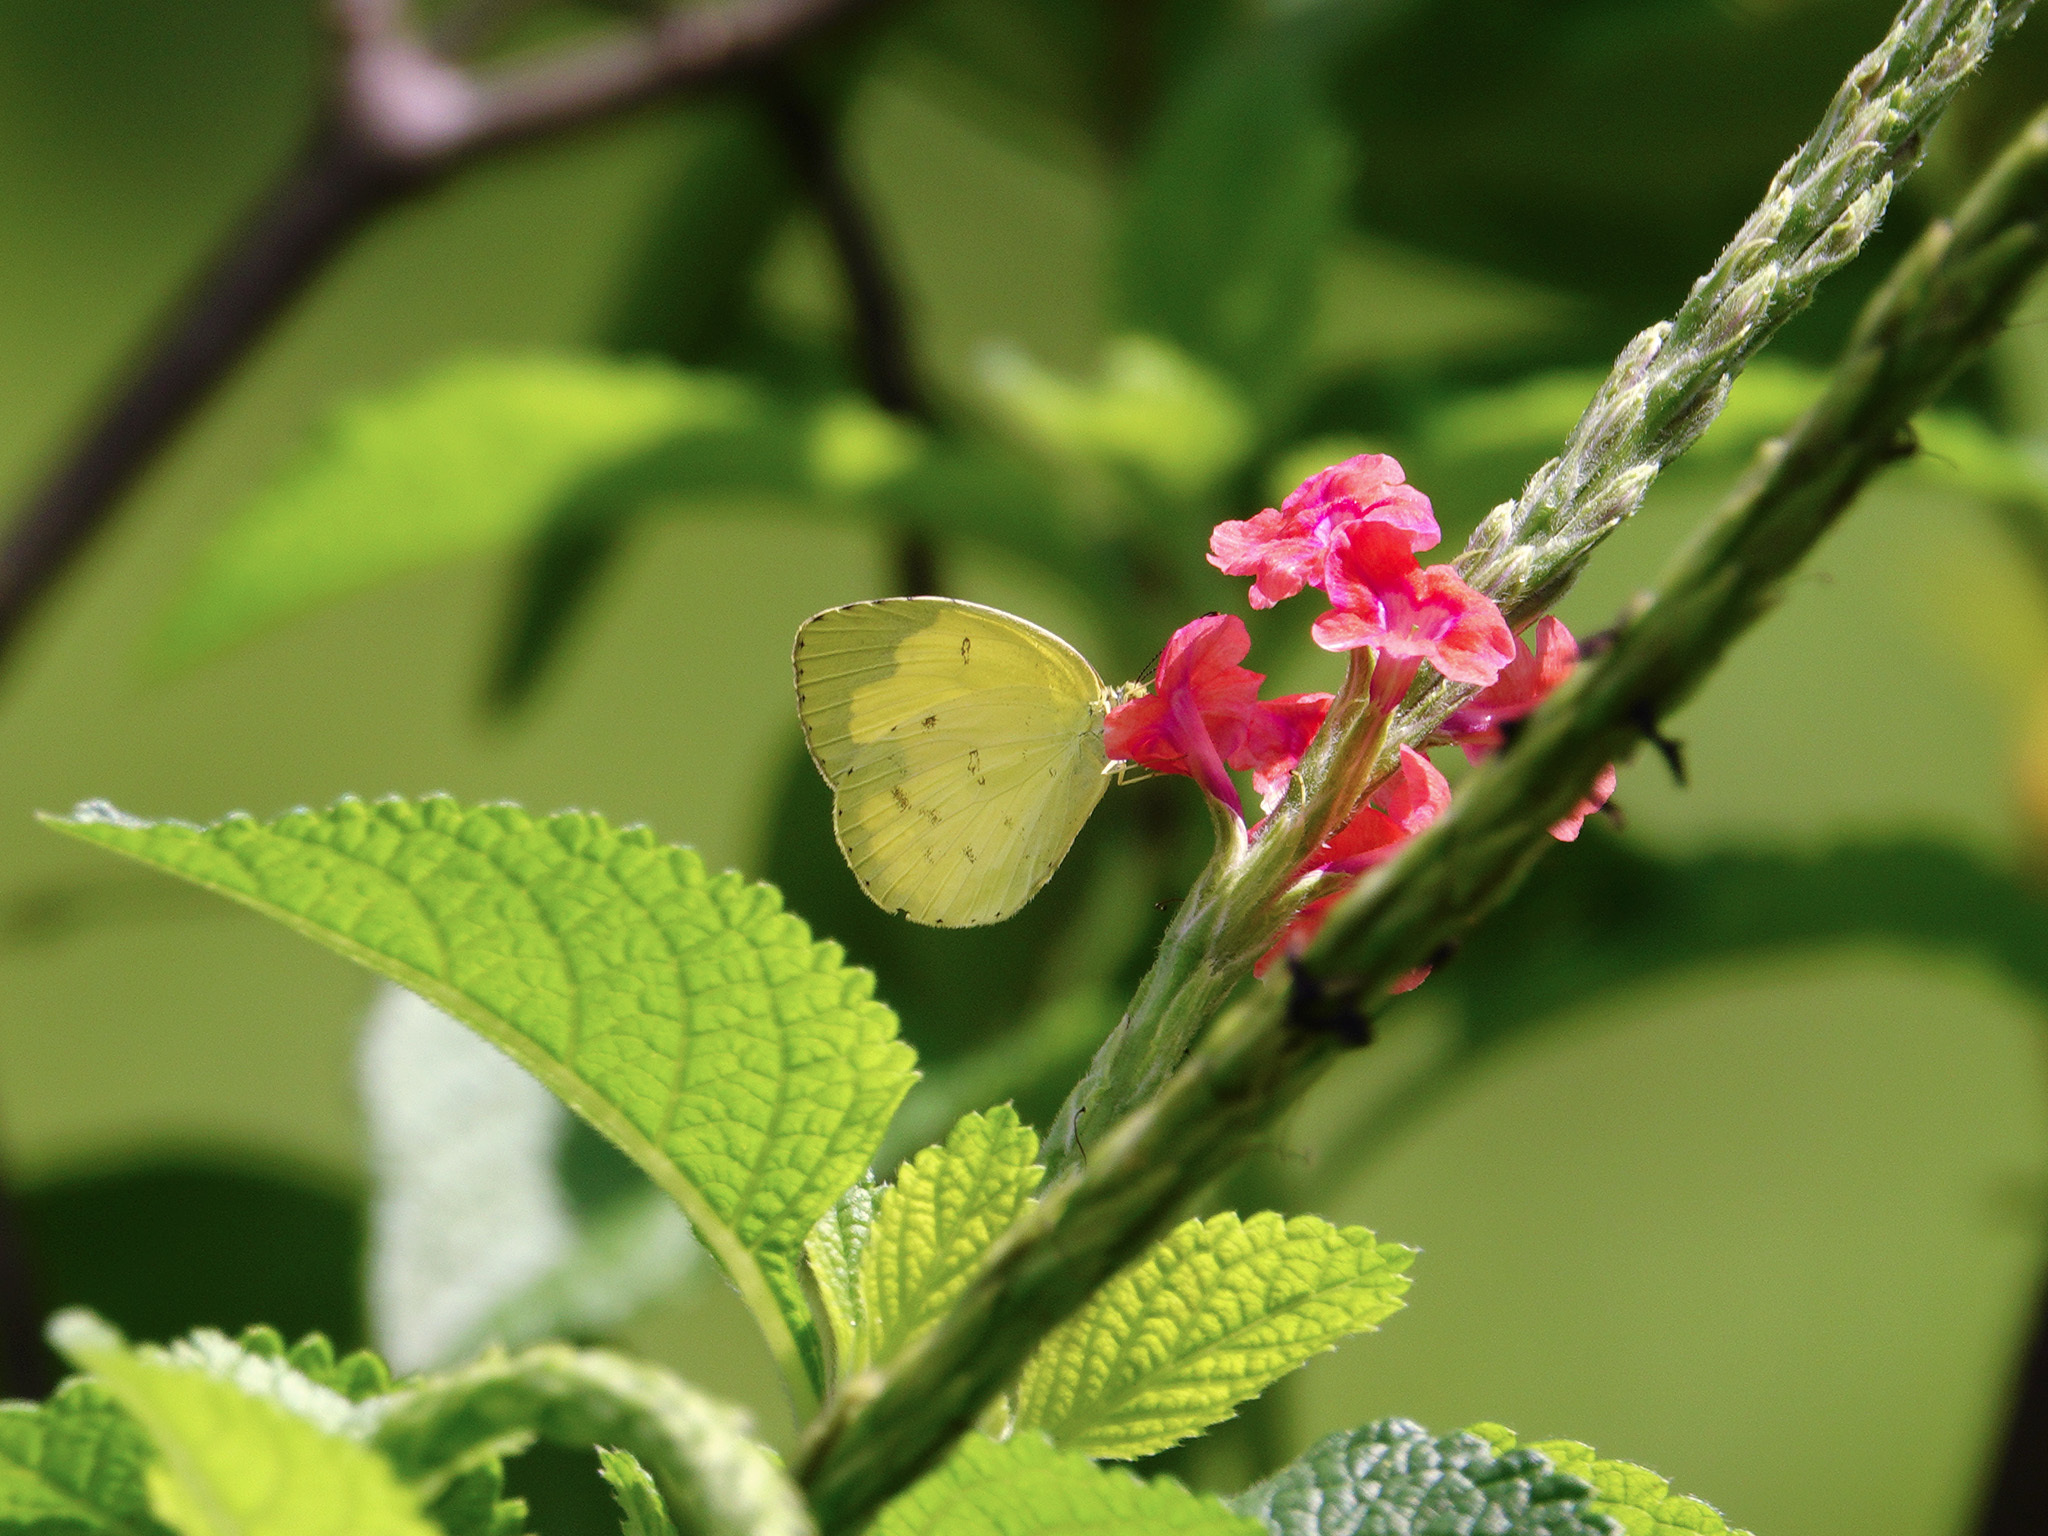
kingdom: Animalia
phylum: Arthropoda
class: Insecta
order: Lepidoptera
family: Pieridae
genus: Eurema
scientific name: Eurema hecabe
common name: Pale grass yellow
